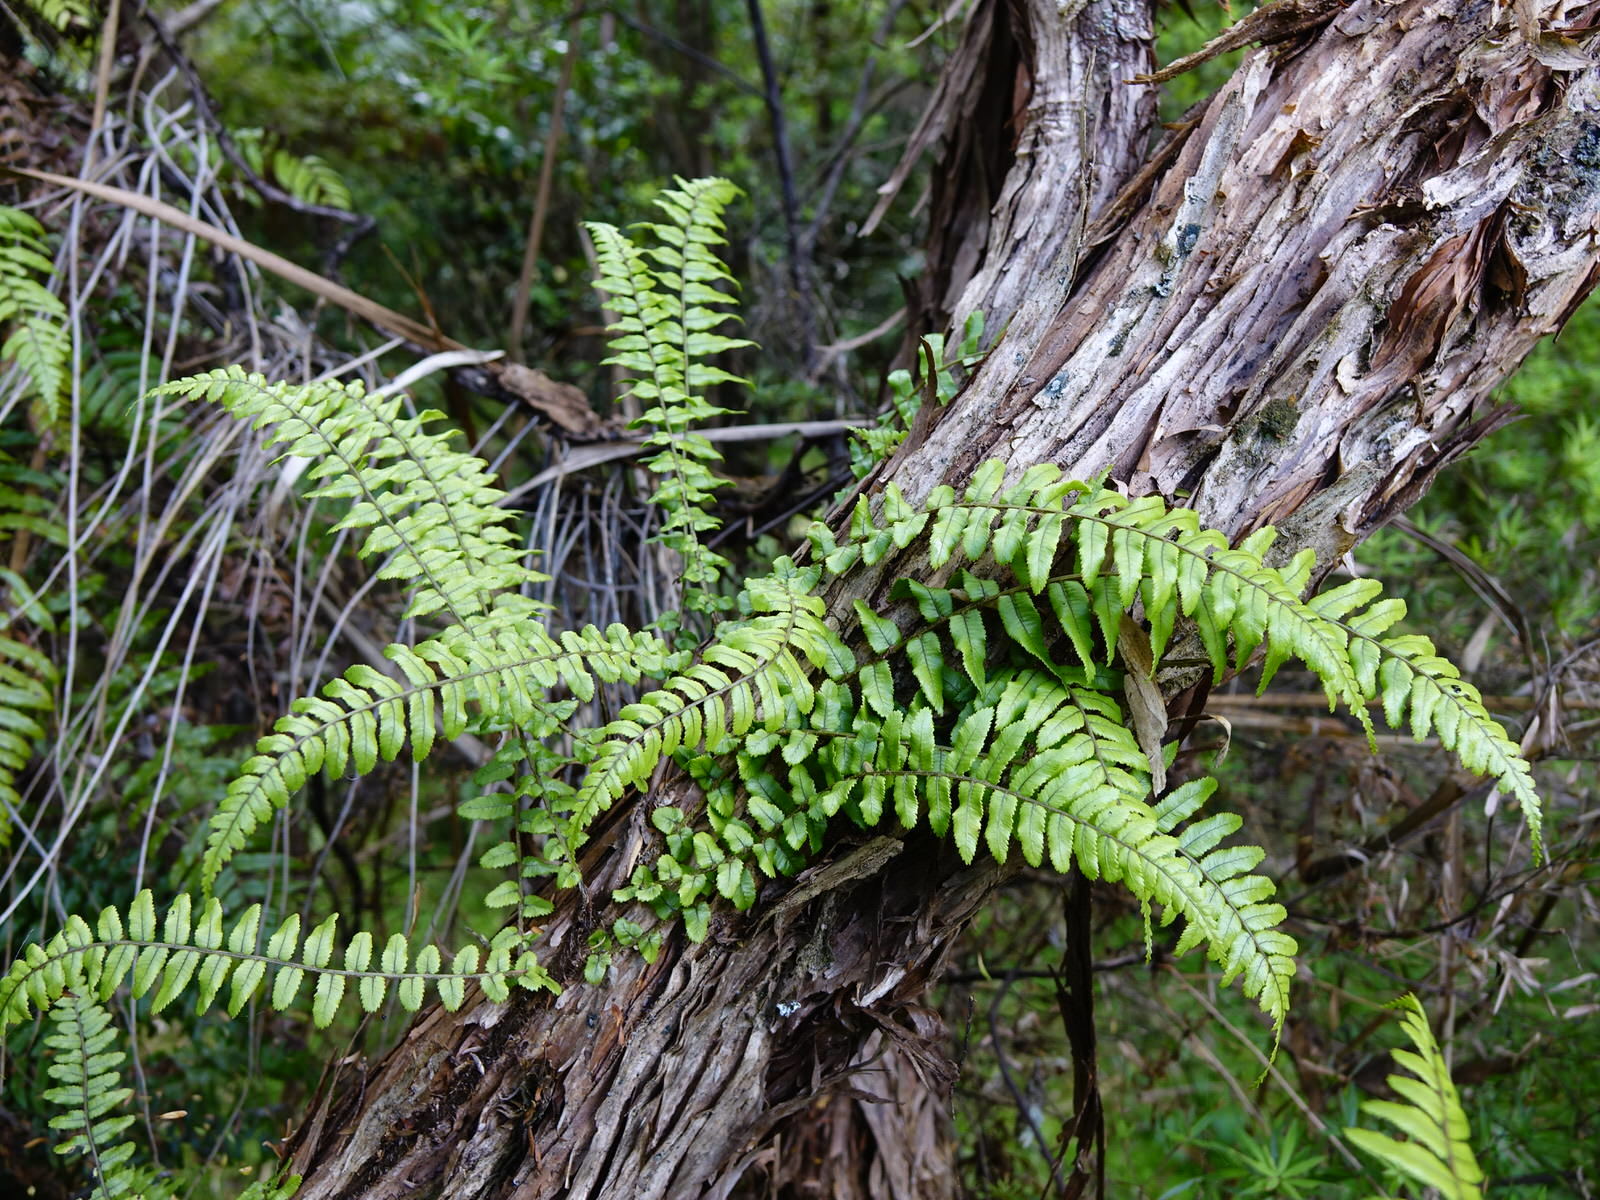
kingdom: Plantae
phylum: Tracheophyta
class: Polypodiopsida
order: Polypodiales
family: Blechnaceae
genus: Icarus
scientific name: Icarus filiformis
